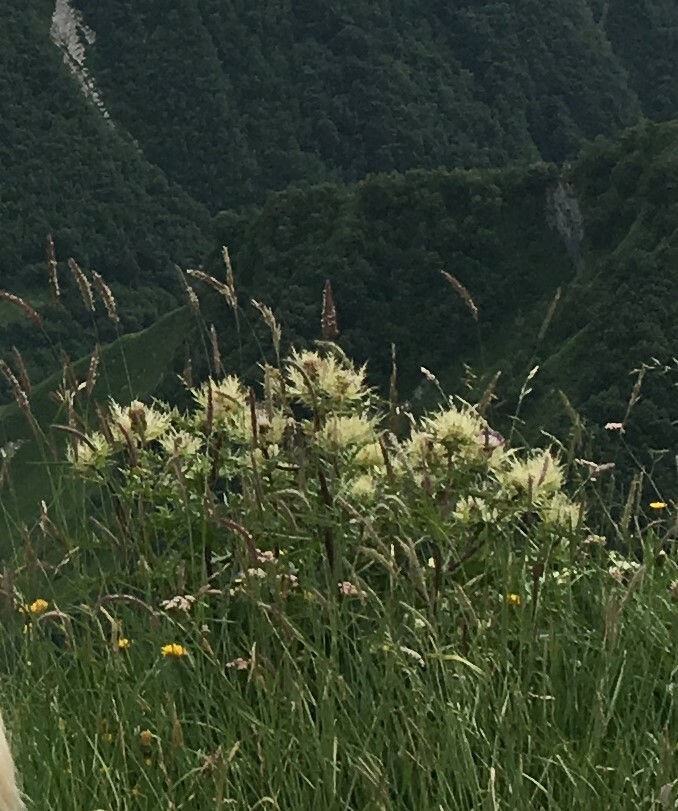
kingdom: Plantae
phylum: Tracheophyta
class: Magnoliopsida
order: Asterales
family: Asteraceae
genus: Cirsium
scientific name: Cirsium obvallatum
